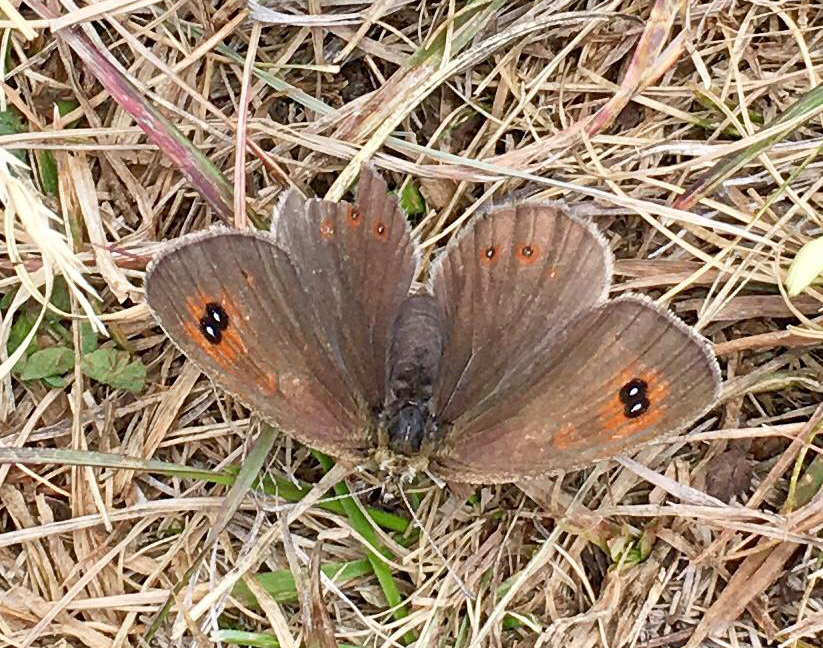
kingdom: Animalia
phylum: Arthropoda
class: Insecta
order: Lepidoptera
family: Nymphalidae
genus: Erebia
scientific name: Erebia tyndarus
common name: Swiss brassy ringlet
